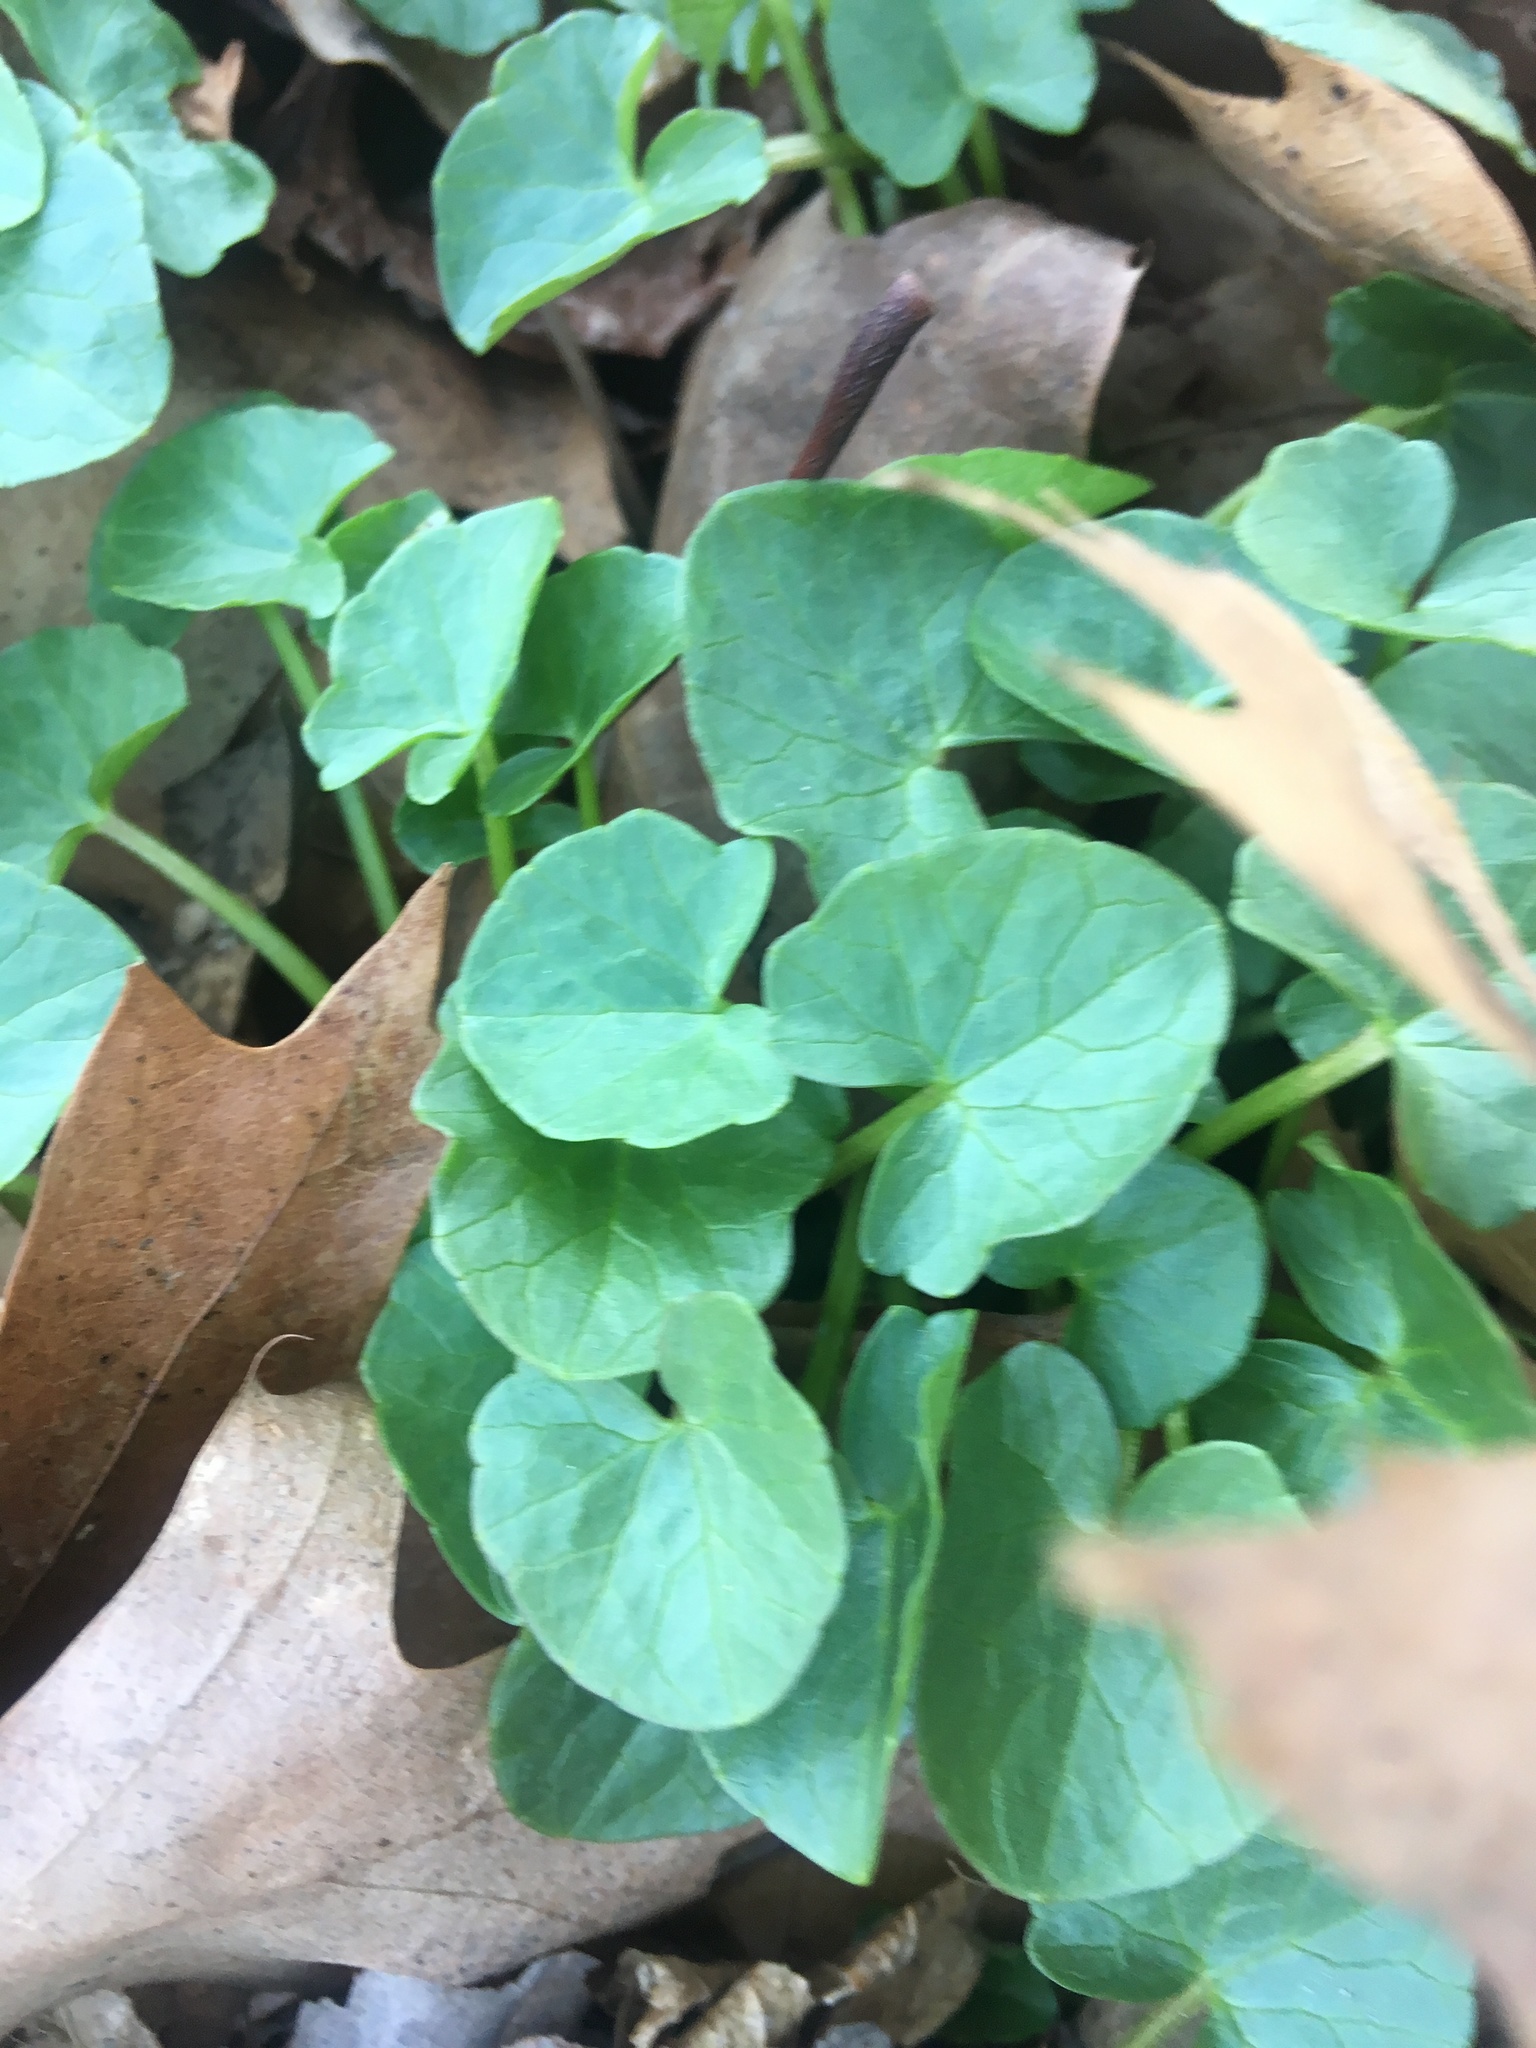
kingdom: Plantae
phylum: Tracheophyta
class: Magnoliopsida
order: Ranunculales
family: Ranunculaceae
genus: Ficaria
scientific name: Ficaria verna
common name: Lesser celandine
